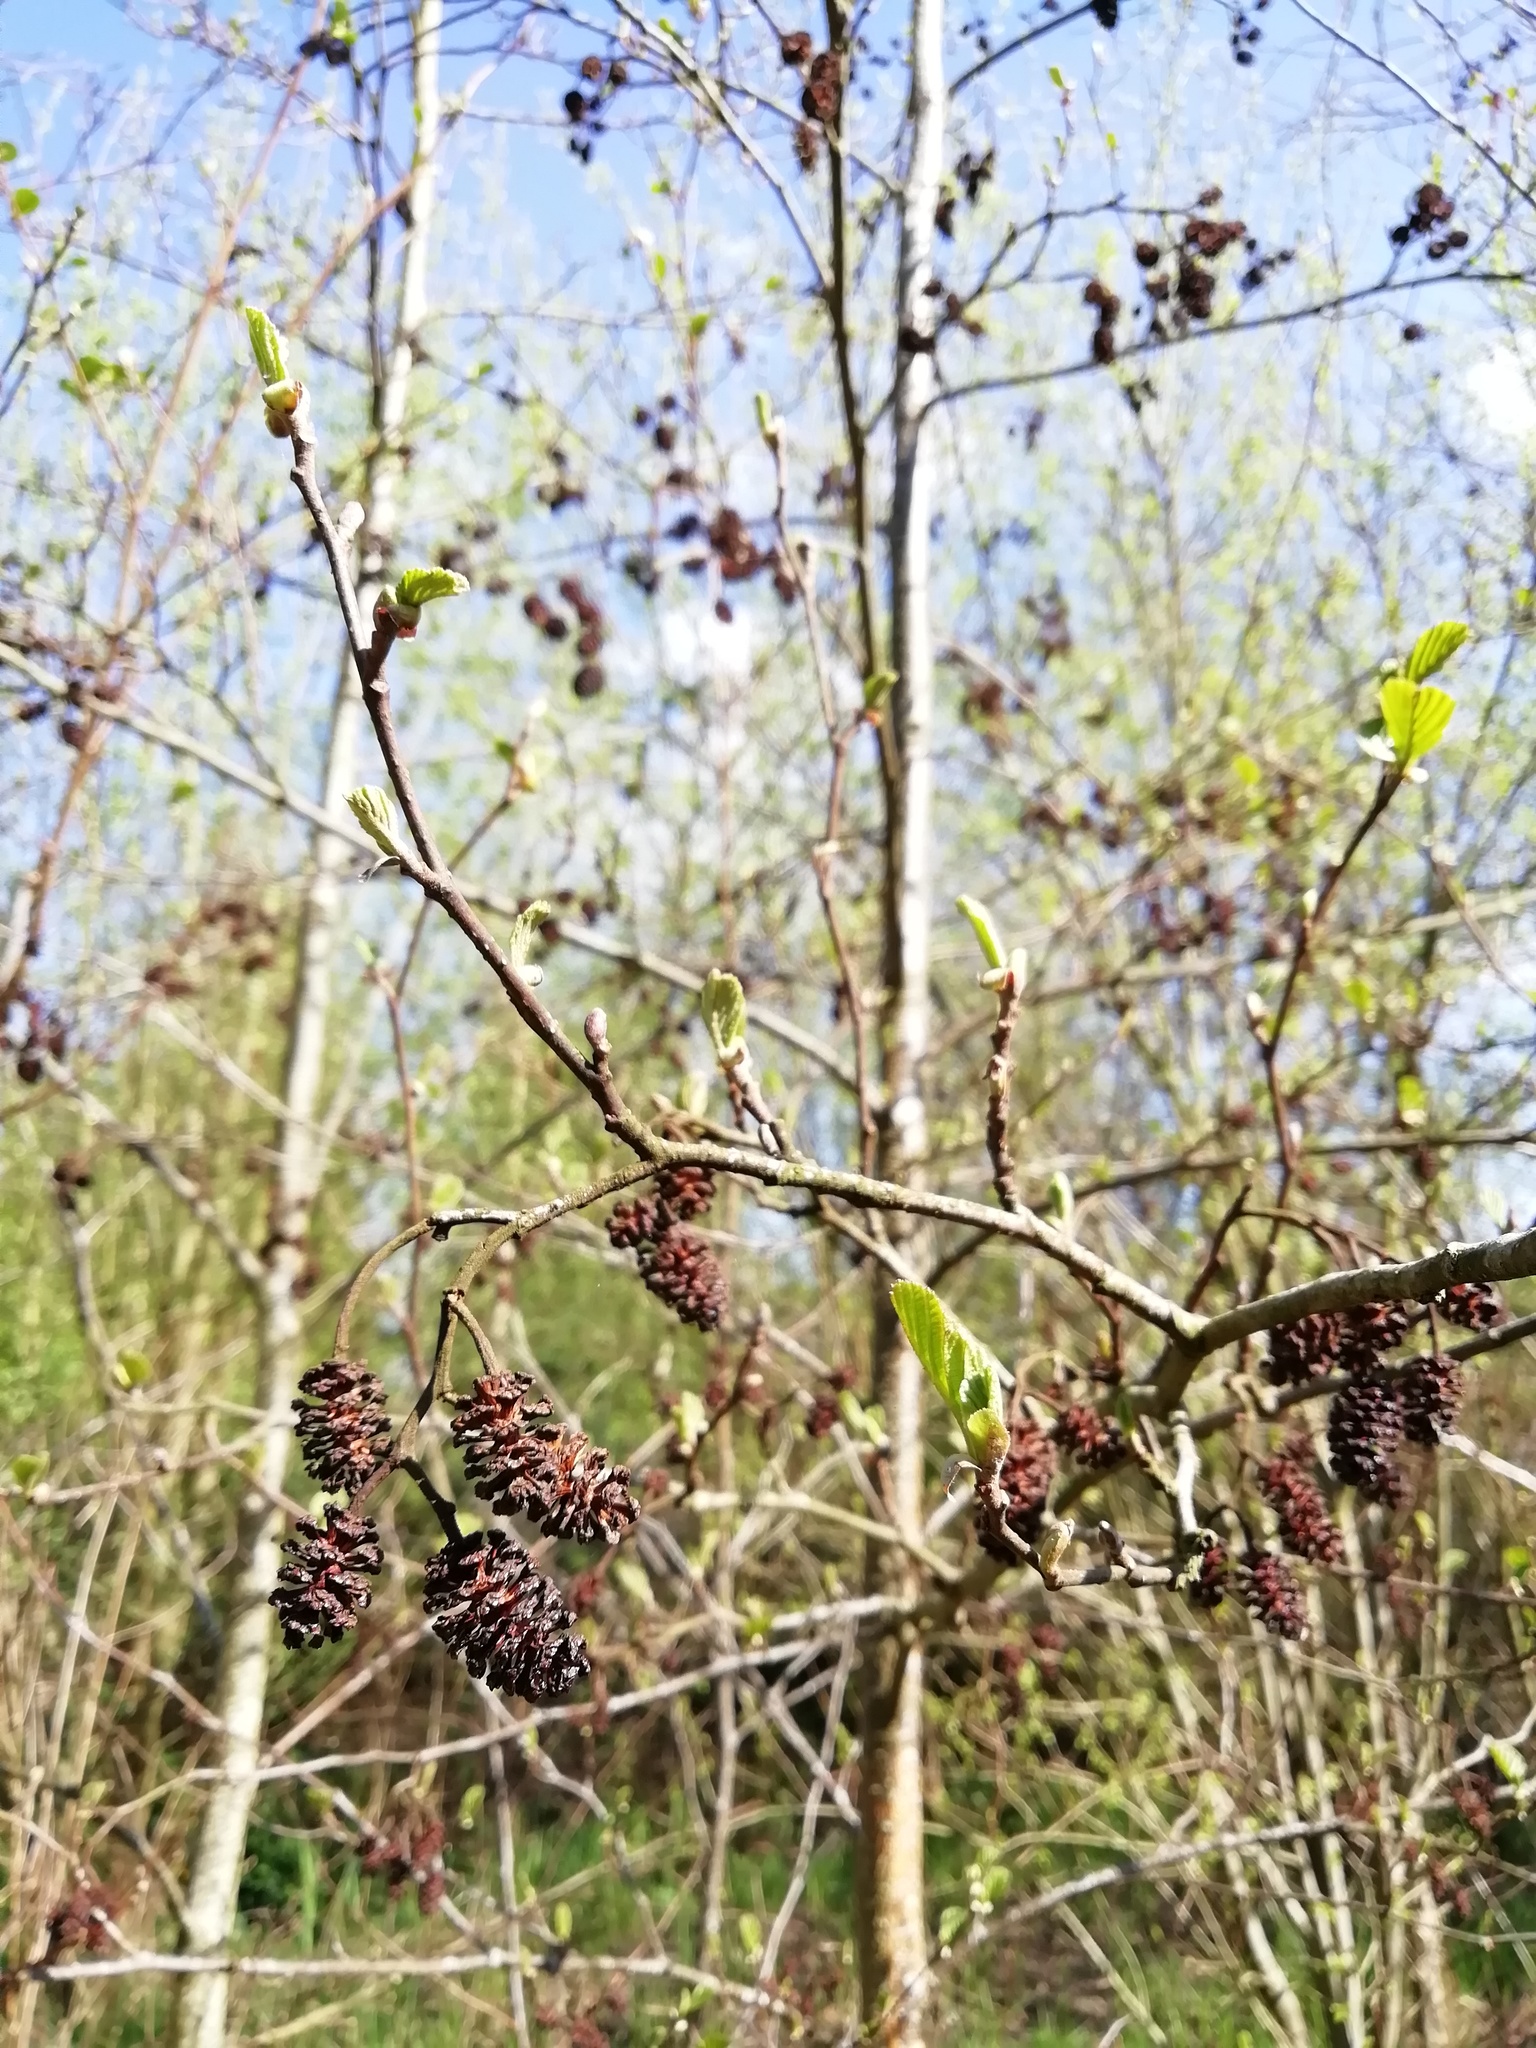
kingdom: Plantae
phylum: Tracheophyta
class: Magnoliopsida
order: Fagales
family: Betulaceae
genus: Alnus
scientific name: Alnus glutinosa
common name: Black alder
